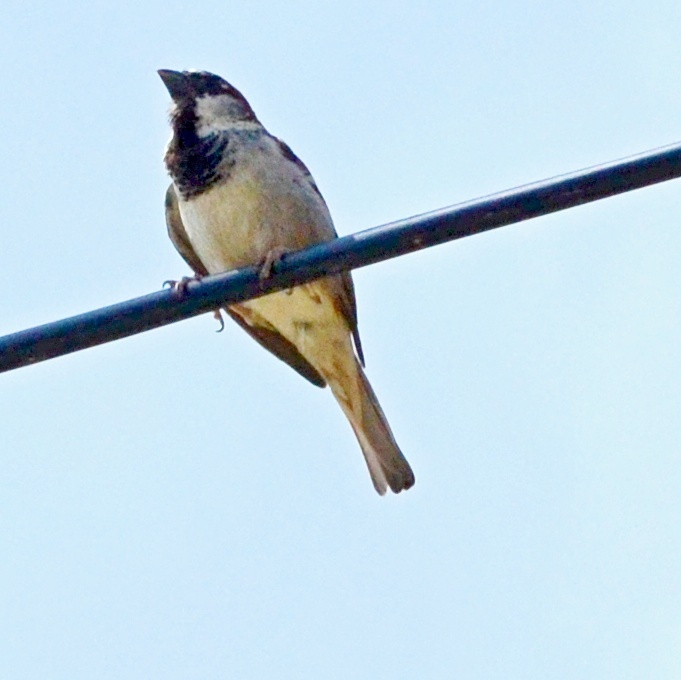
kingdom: Animalia
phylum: Chordata
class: Aves
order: Passeriformes
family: Passeridae
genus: Passer
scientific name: Passer domesticus
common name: House sparrow
